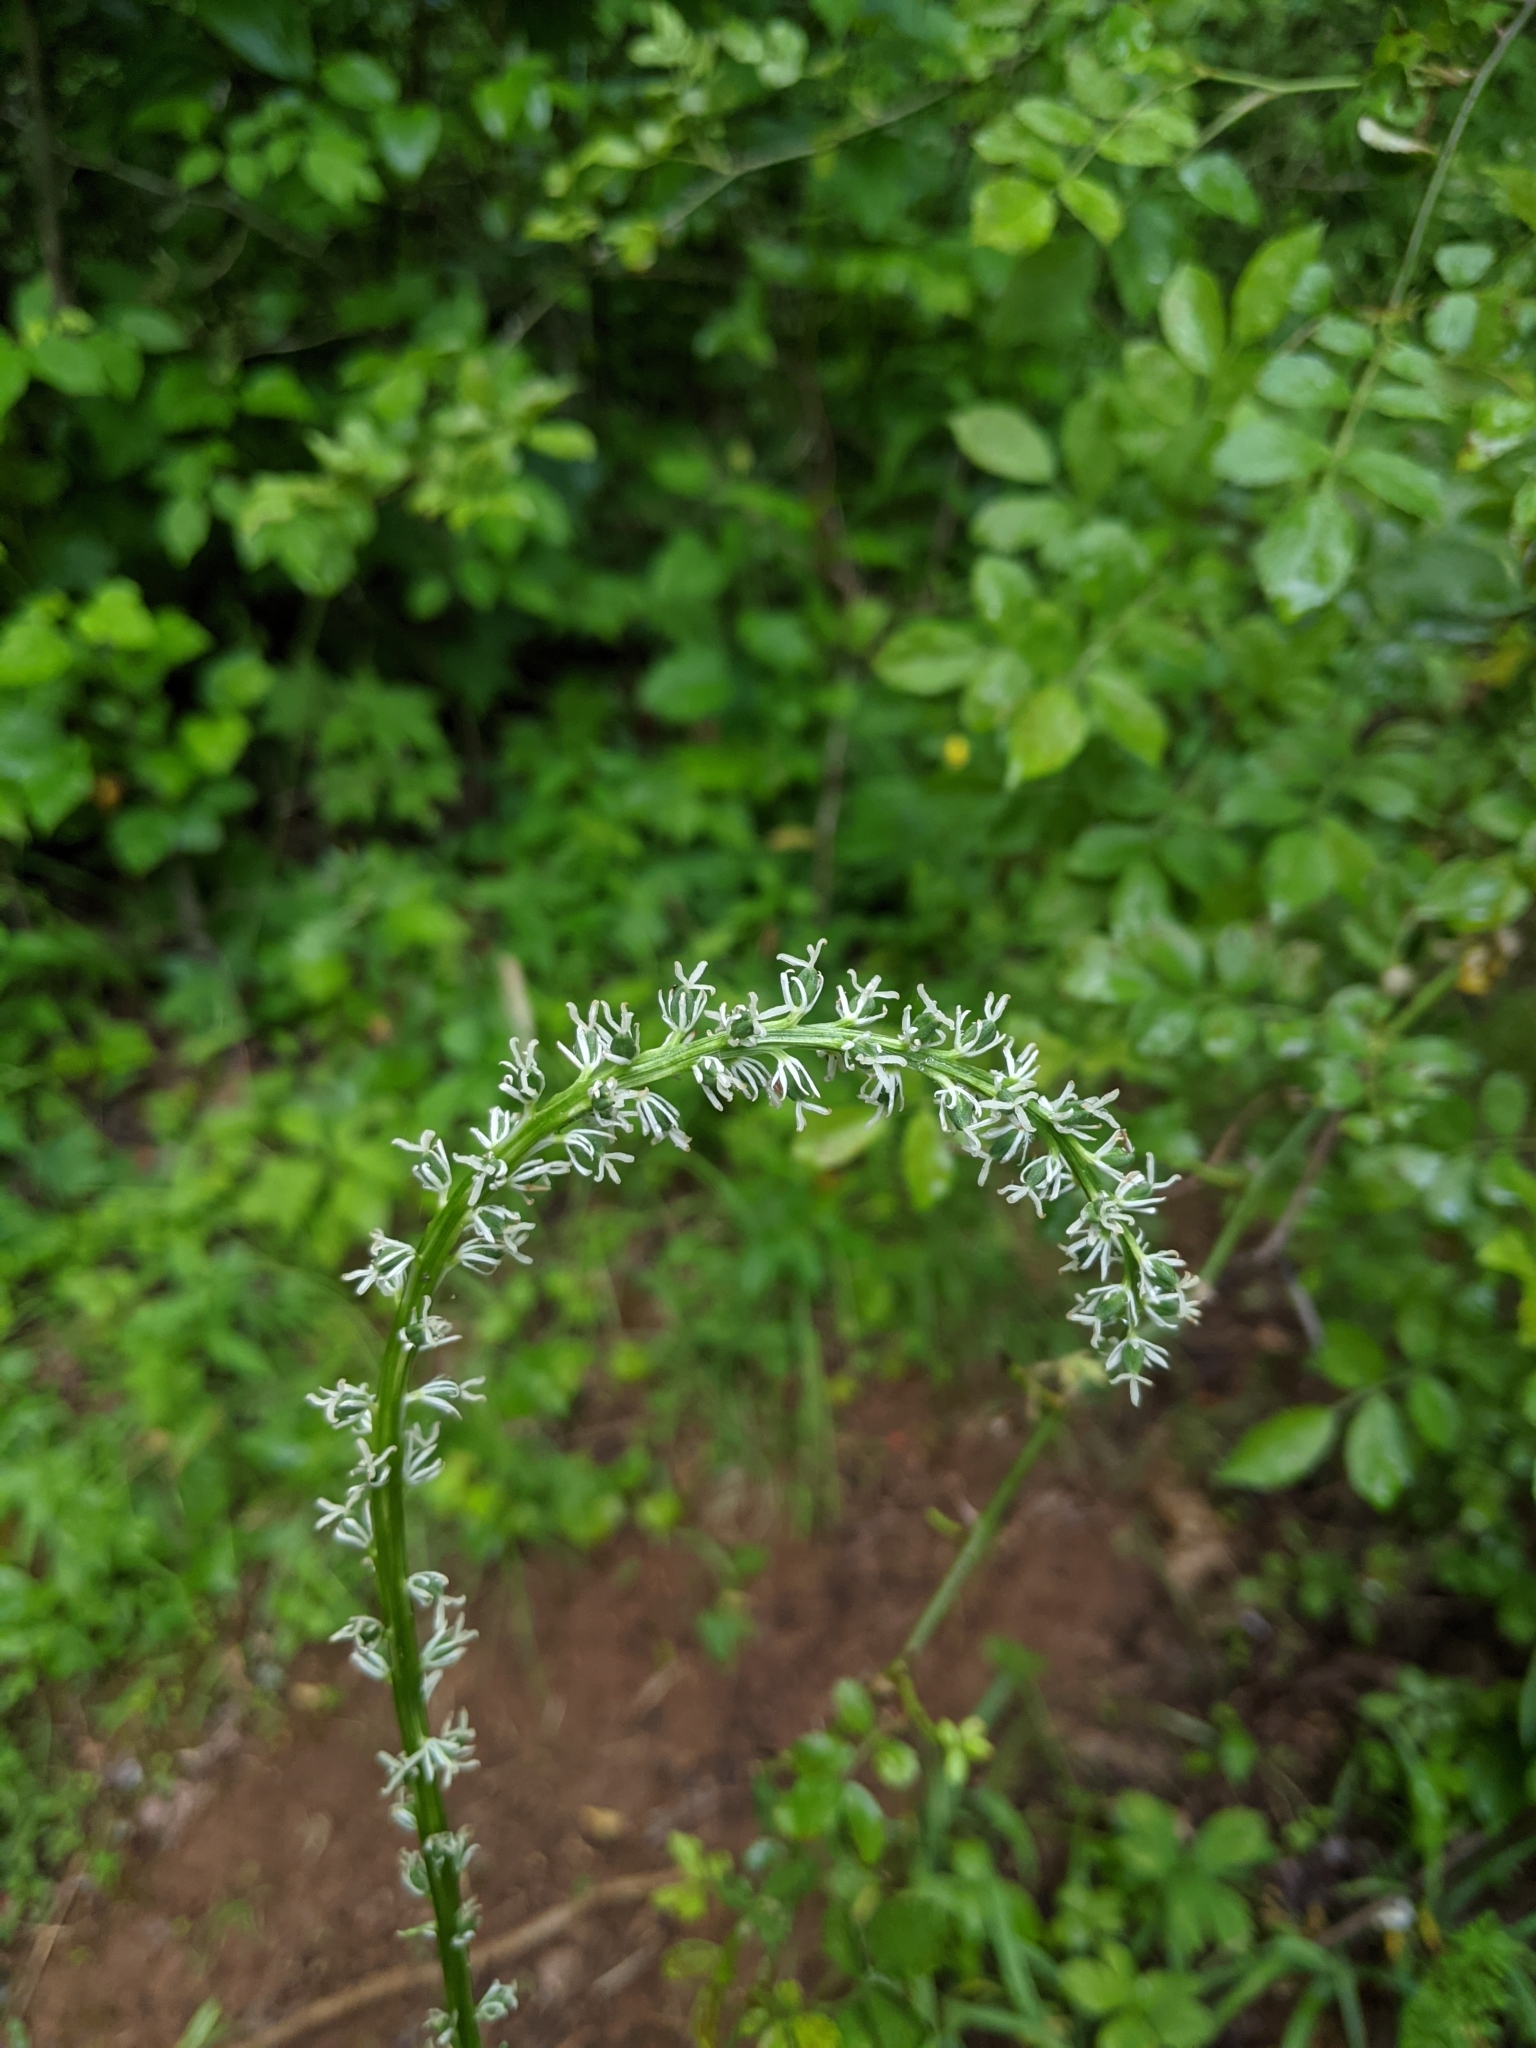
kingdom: Plantae
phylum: Tracheophyta
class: Liliopsida
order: Liliales
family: Melanthiaceae
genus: Chamaelirium
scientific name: Chamaelirium luteum
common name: Fairy-wand
